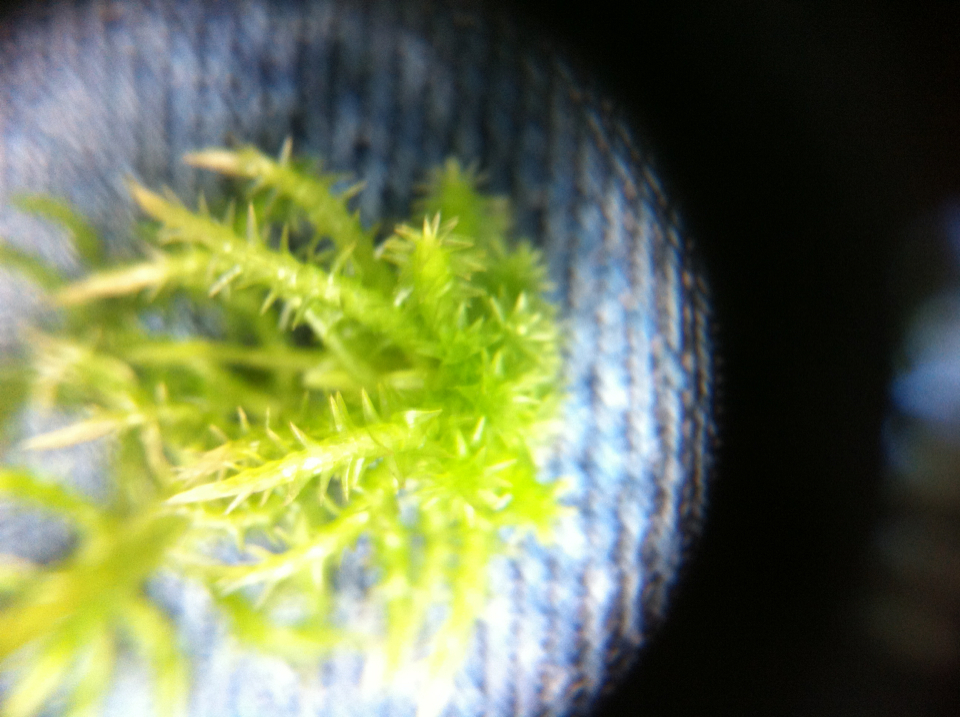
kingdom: Plantae
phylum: Bryophyta
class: Sphagnopsida
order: Sphagnales
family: Sphagnaceae
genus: Sphagnum
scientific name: Sphagnum squarrosum
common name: Shaggy peat moss
